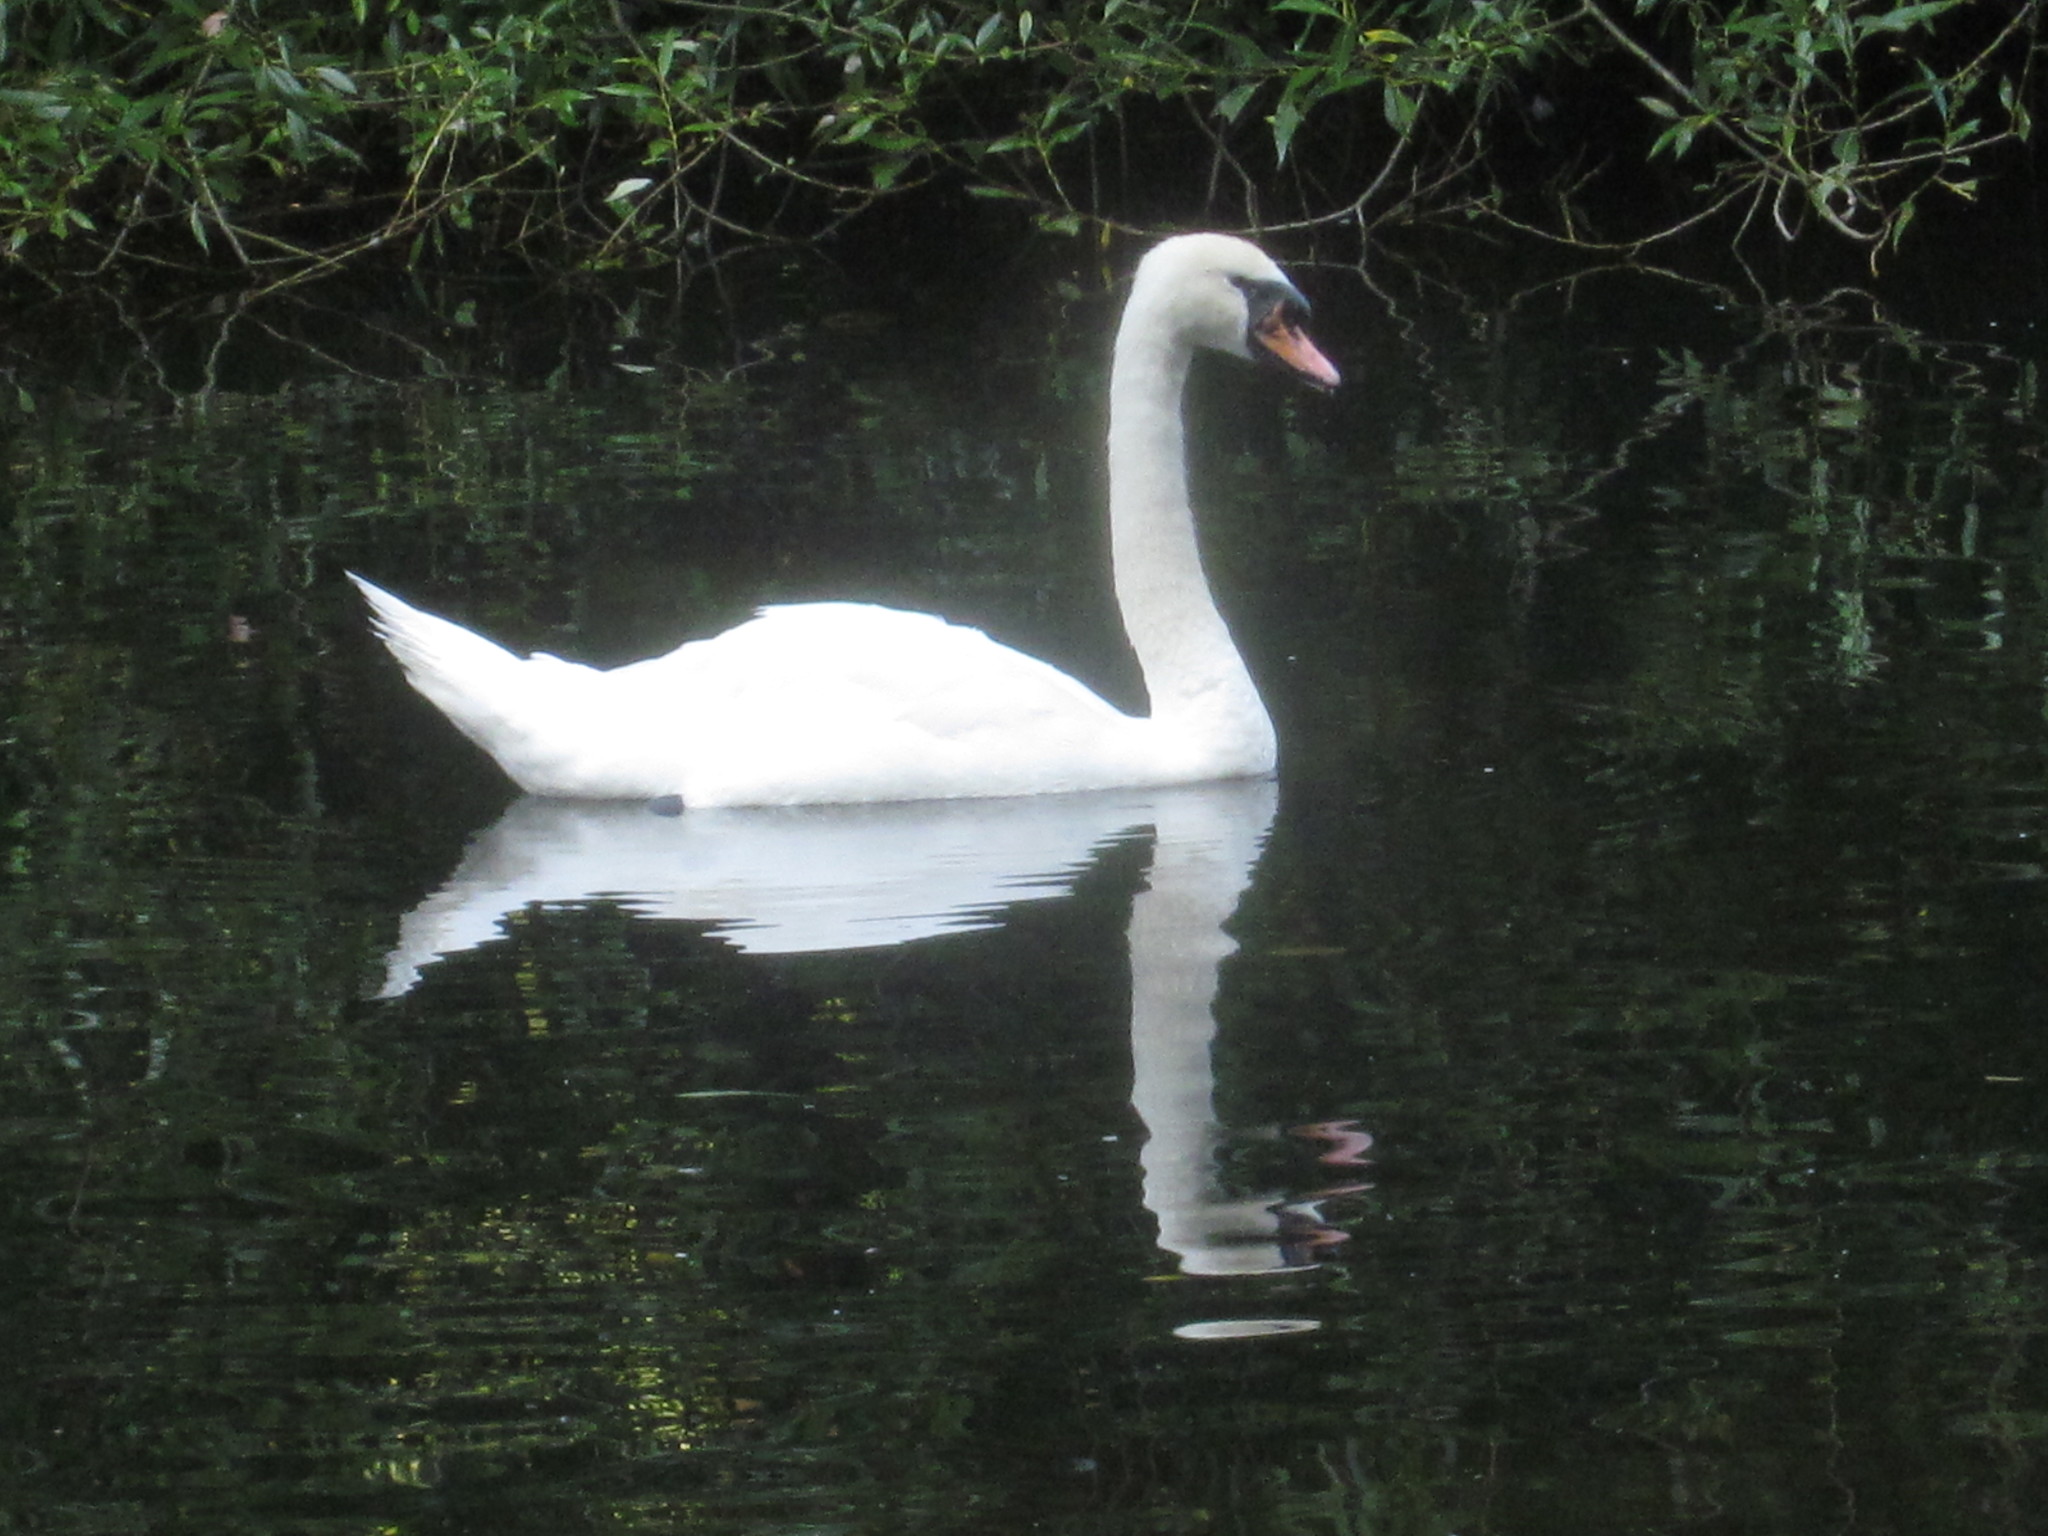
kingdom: Animalia
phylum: Chordata
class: Aves
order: Anseriformes
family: Anatidae
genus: Cygnus
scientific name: Cygnus olor
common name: Mute swan
